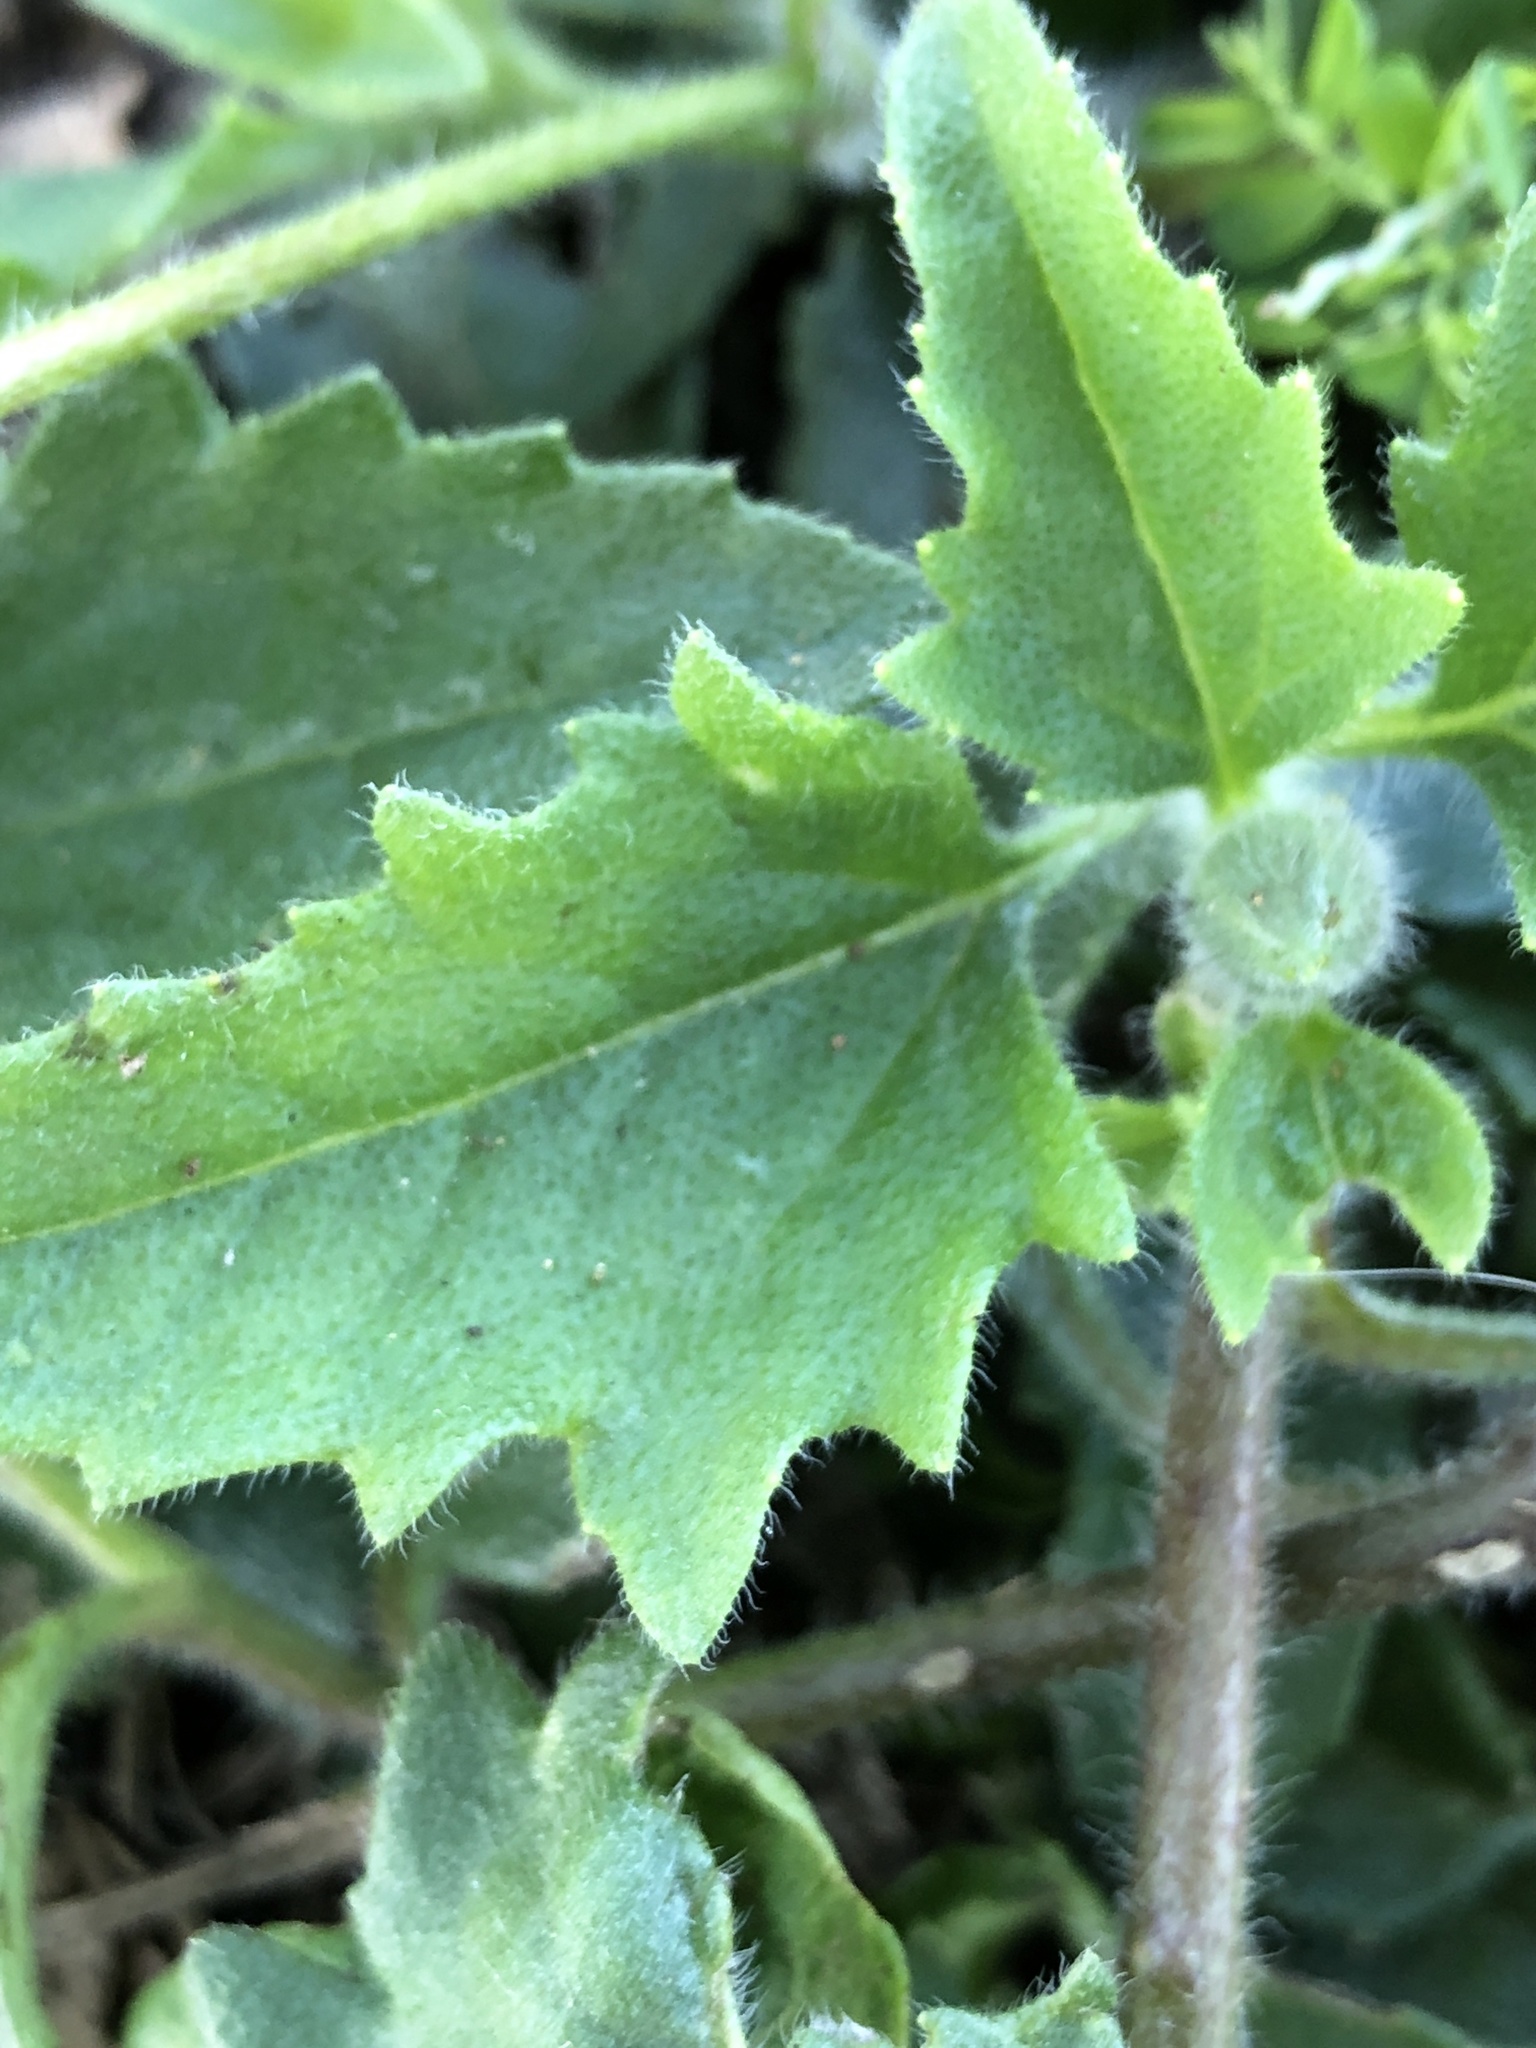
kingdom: Plantae
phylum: Tracheophyta
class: Magnoliopsida
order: Asterales
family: Asteraceae
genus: Tridax
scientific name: Tridax procumbens
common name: Coatbuttons
